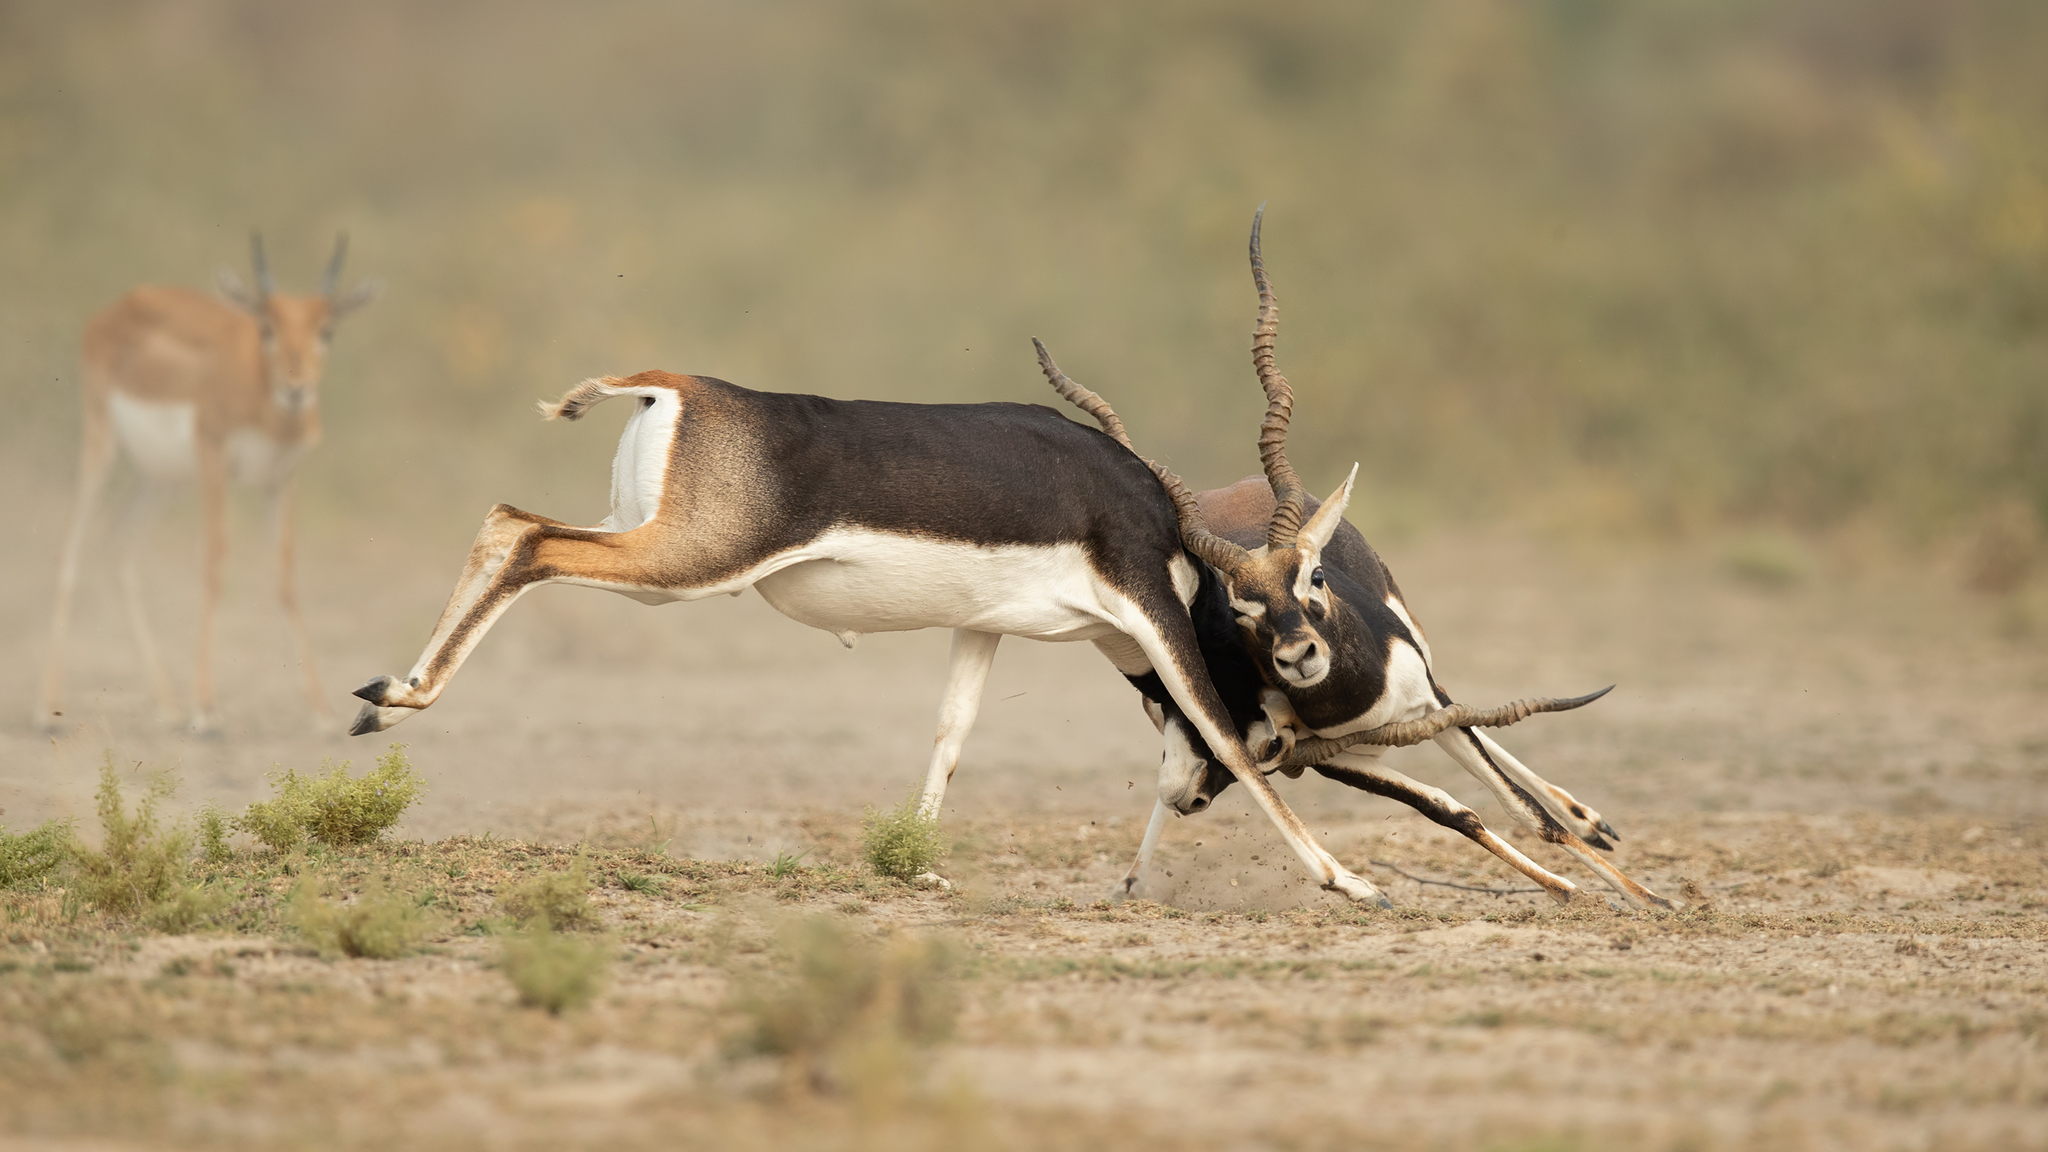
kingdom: Animalia
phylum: Chordata
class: Mammalia
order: Artiodactyla
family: Bovidae
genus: Antilope
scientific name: Antilope cervicapra
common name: Blackbuck
